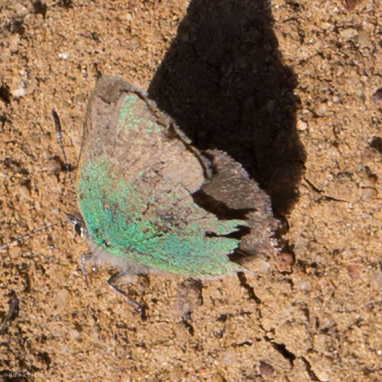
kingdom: Animalia
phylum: Arthropoda
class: Insecta
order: Lepidoptera
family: Lycaenidae
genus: Callophrys
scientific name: Callophrys dumetorum
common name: Bramble hairstreak
